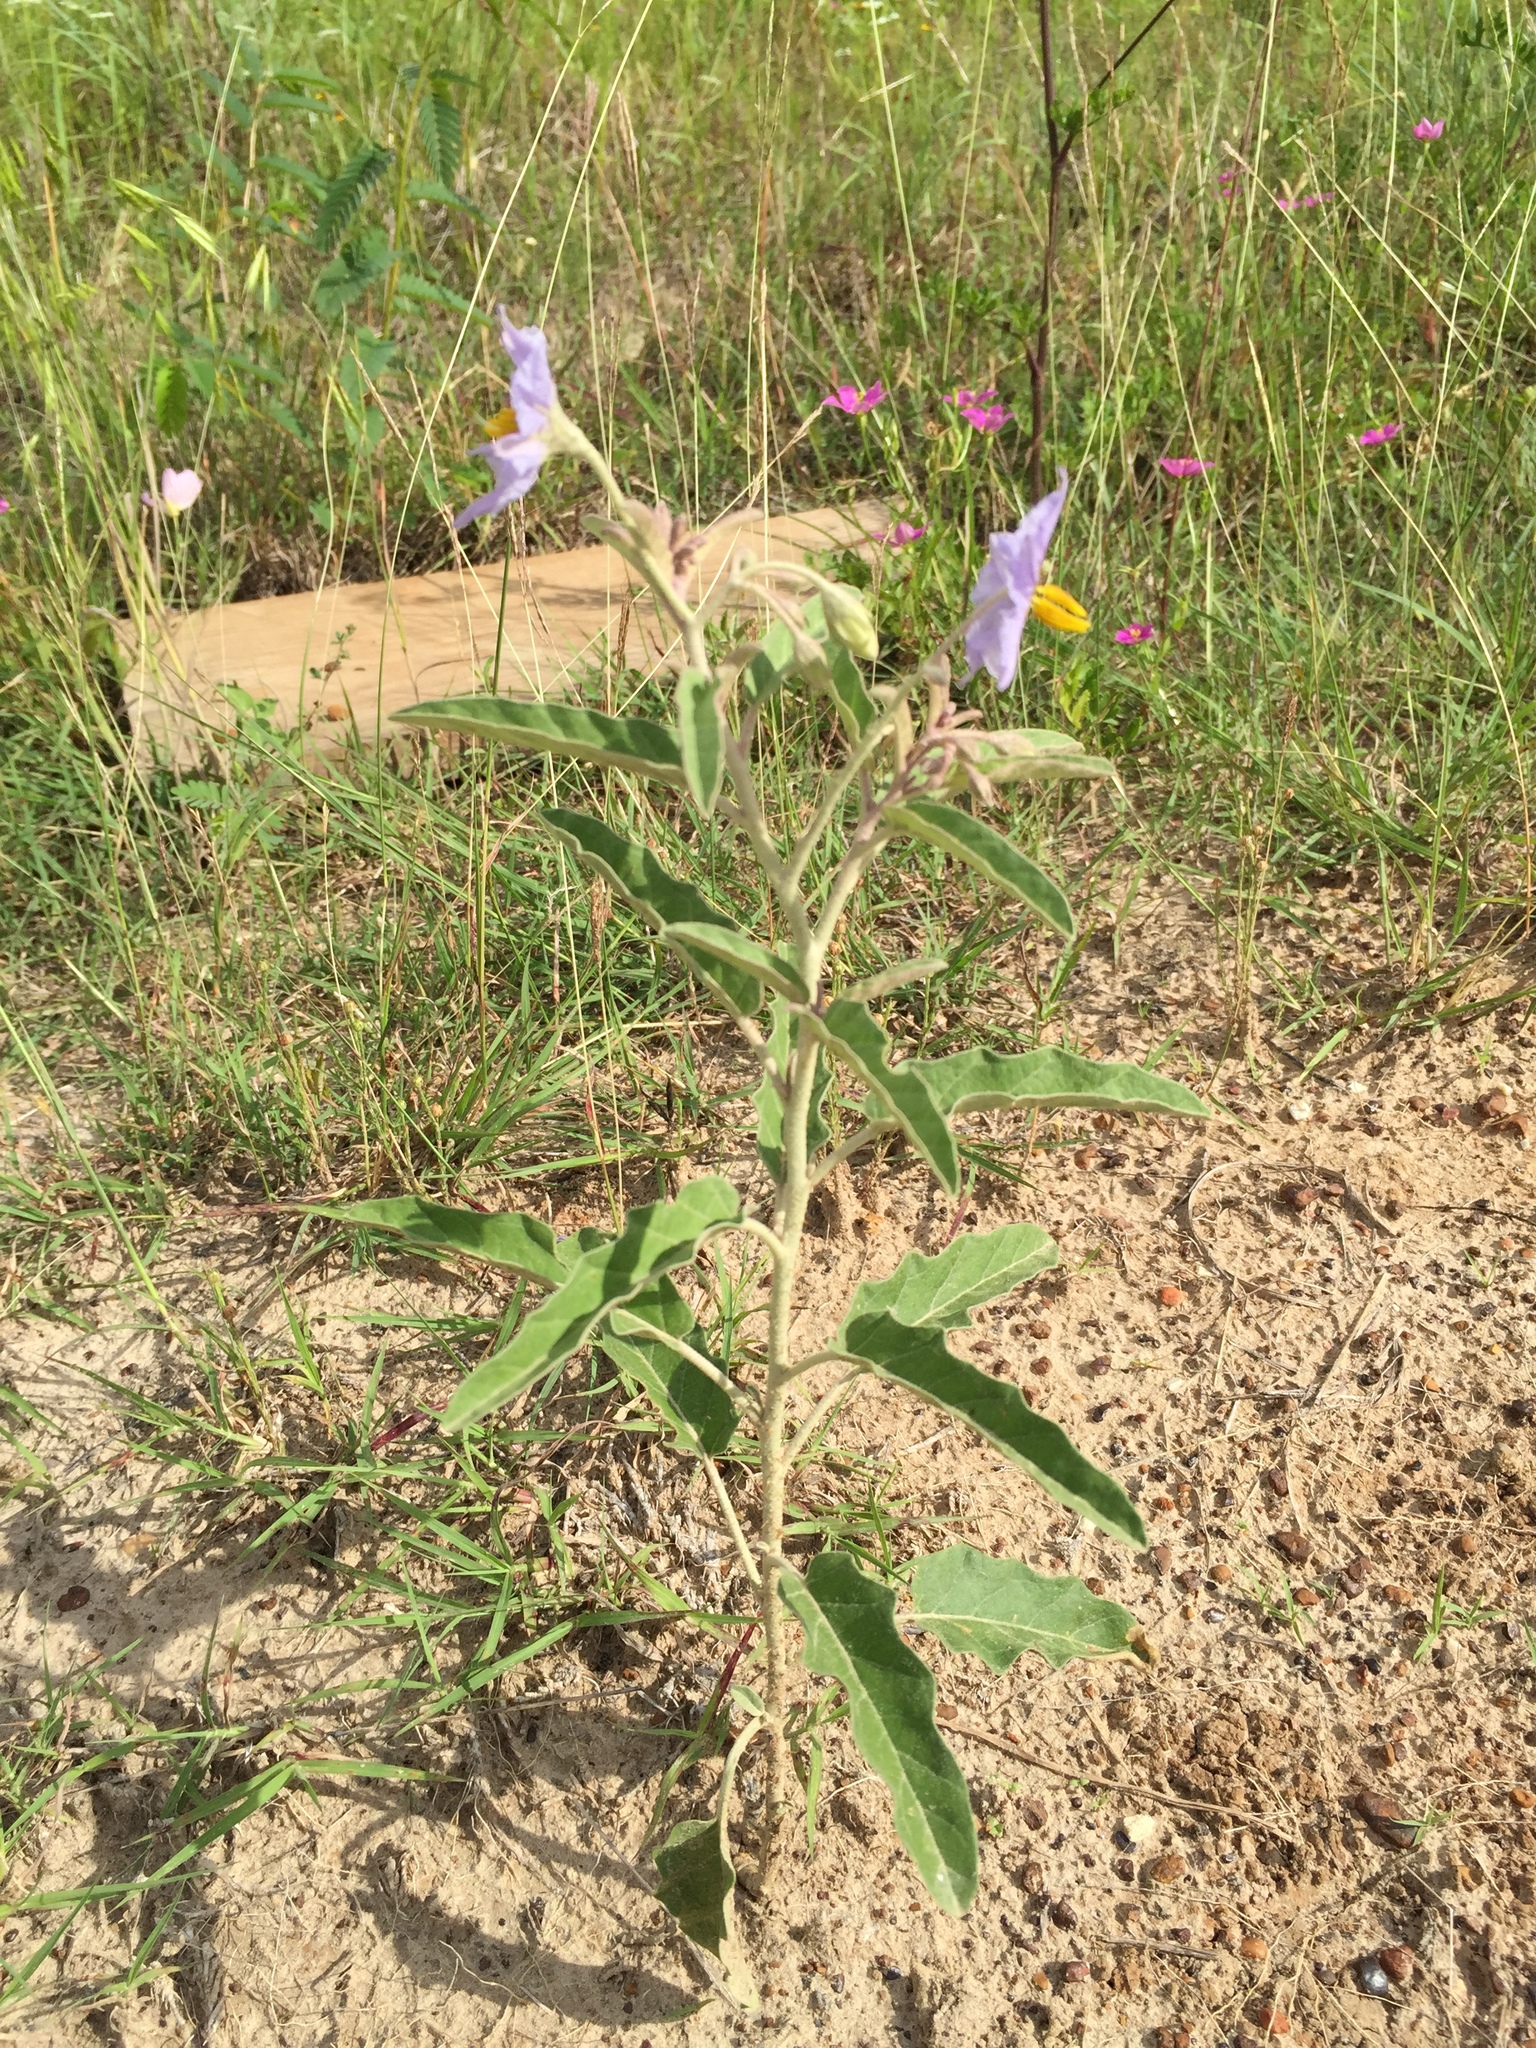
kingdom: Plantae
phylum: Tracheophyta
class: Magnoliopsida
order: Solanales
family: Solanaceae
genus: Solanum
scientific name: Solanum elaeagnifolium
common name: Silverleaf nightshade
